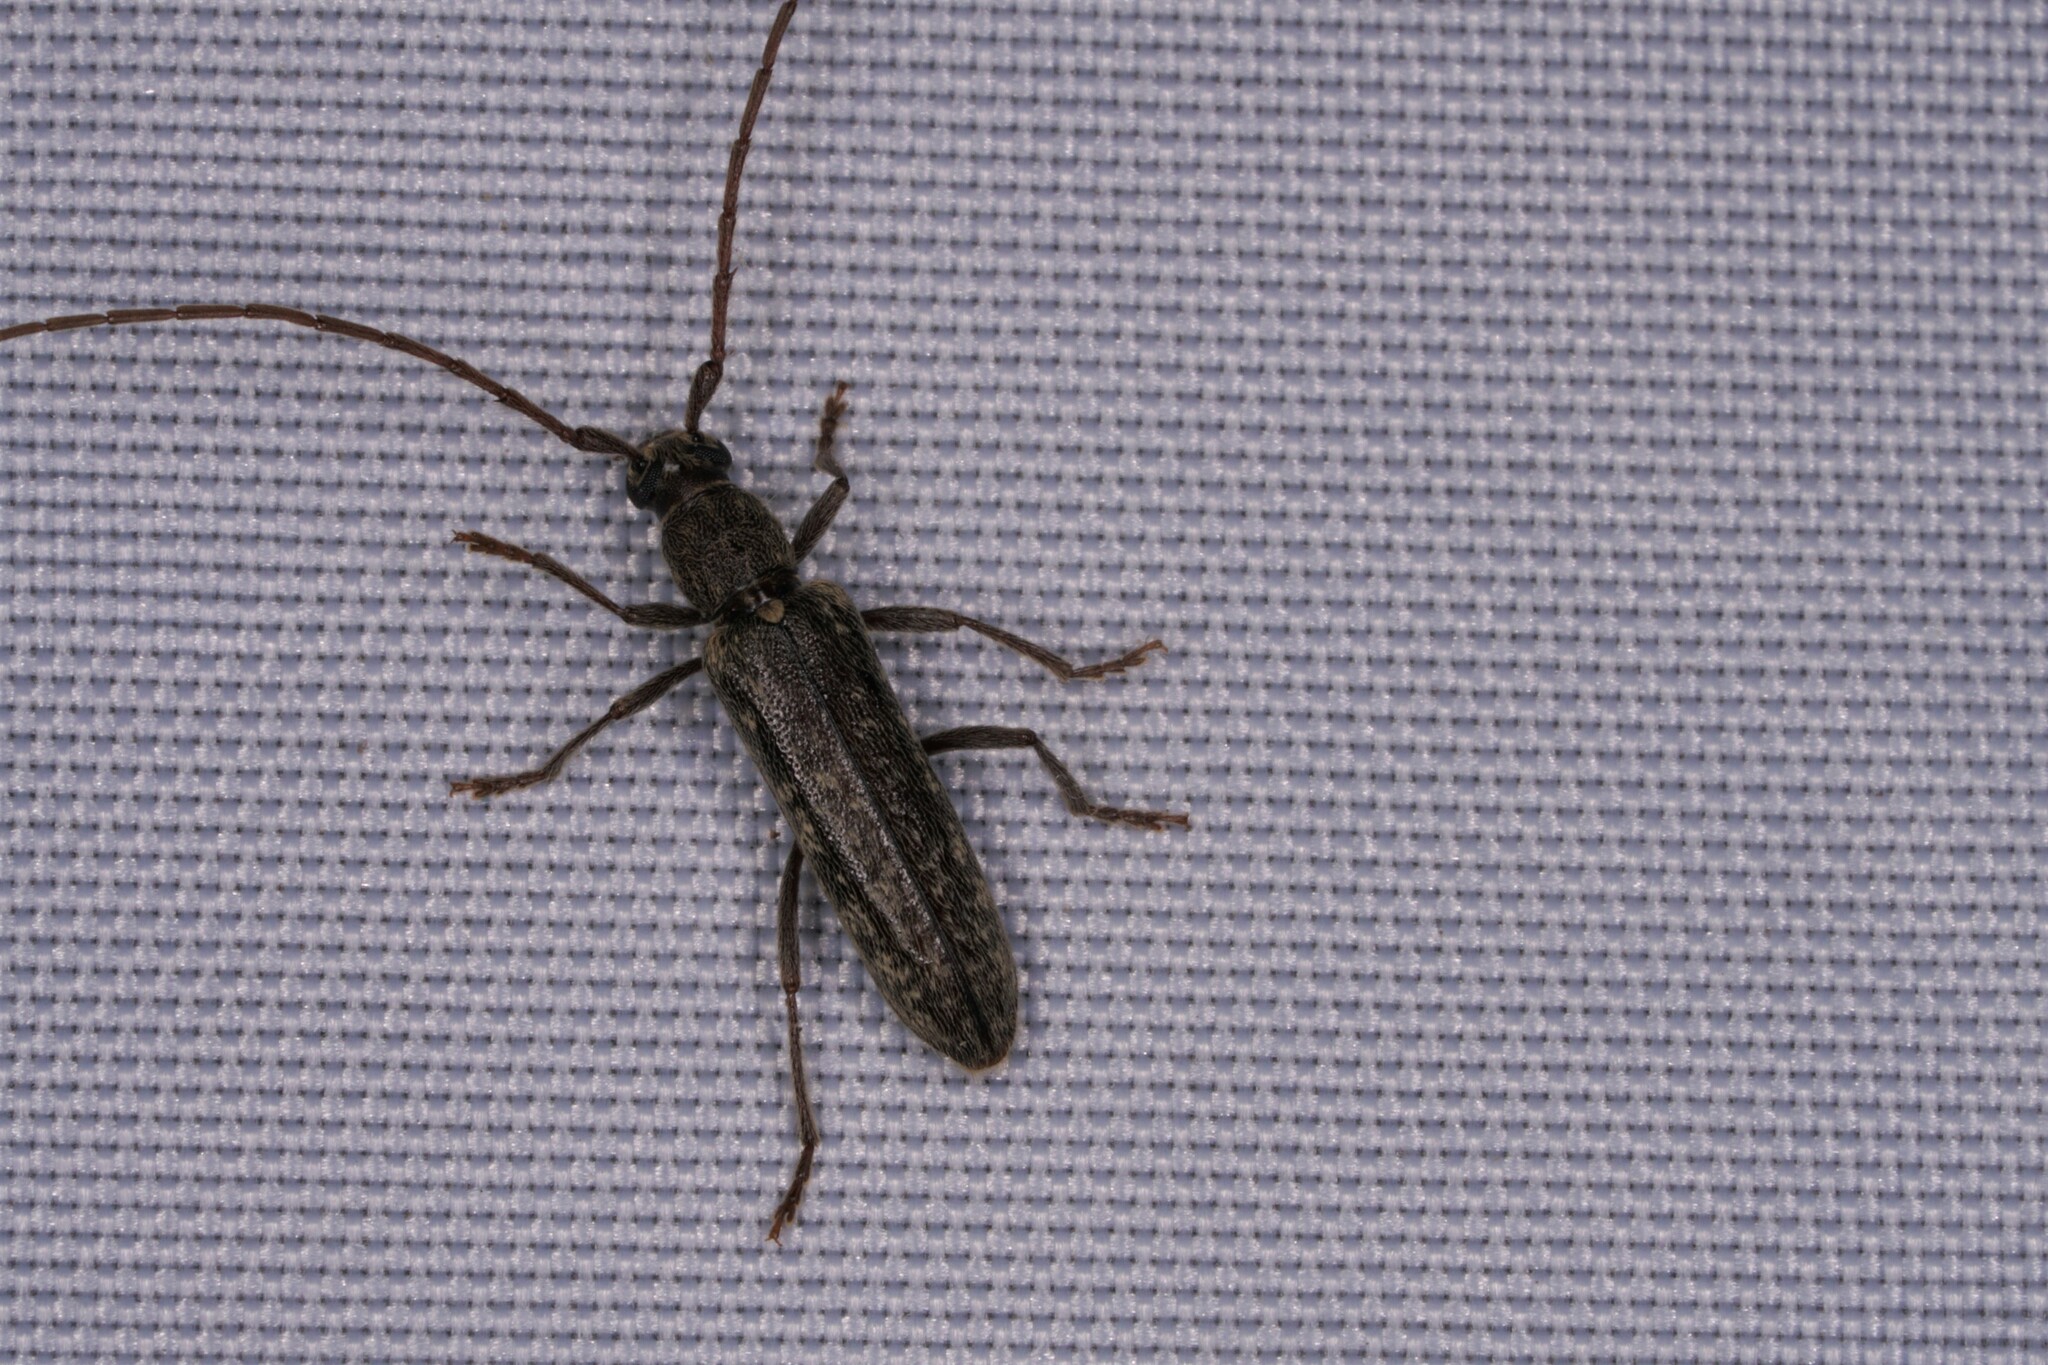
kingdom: Animalia
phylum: Arthropoda
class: Insecta
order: Coleoptera
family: Cerambycidae
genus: Anelaphus
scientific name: Anelaphus villosus
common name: Twig pruner
